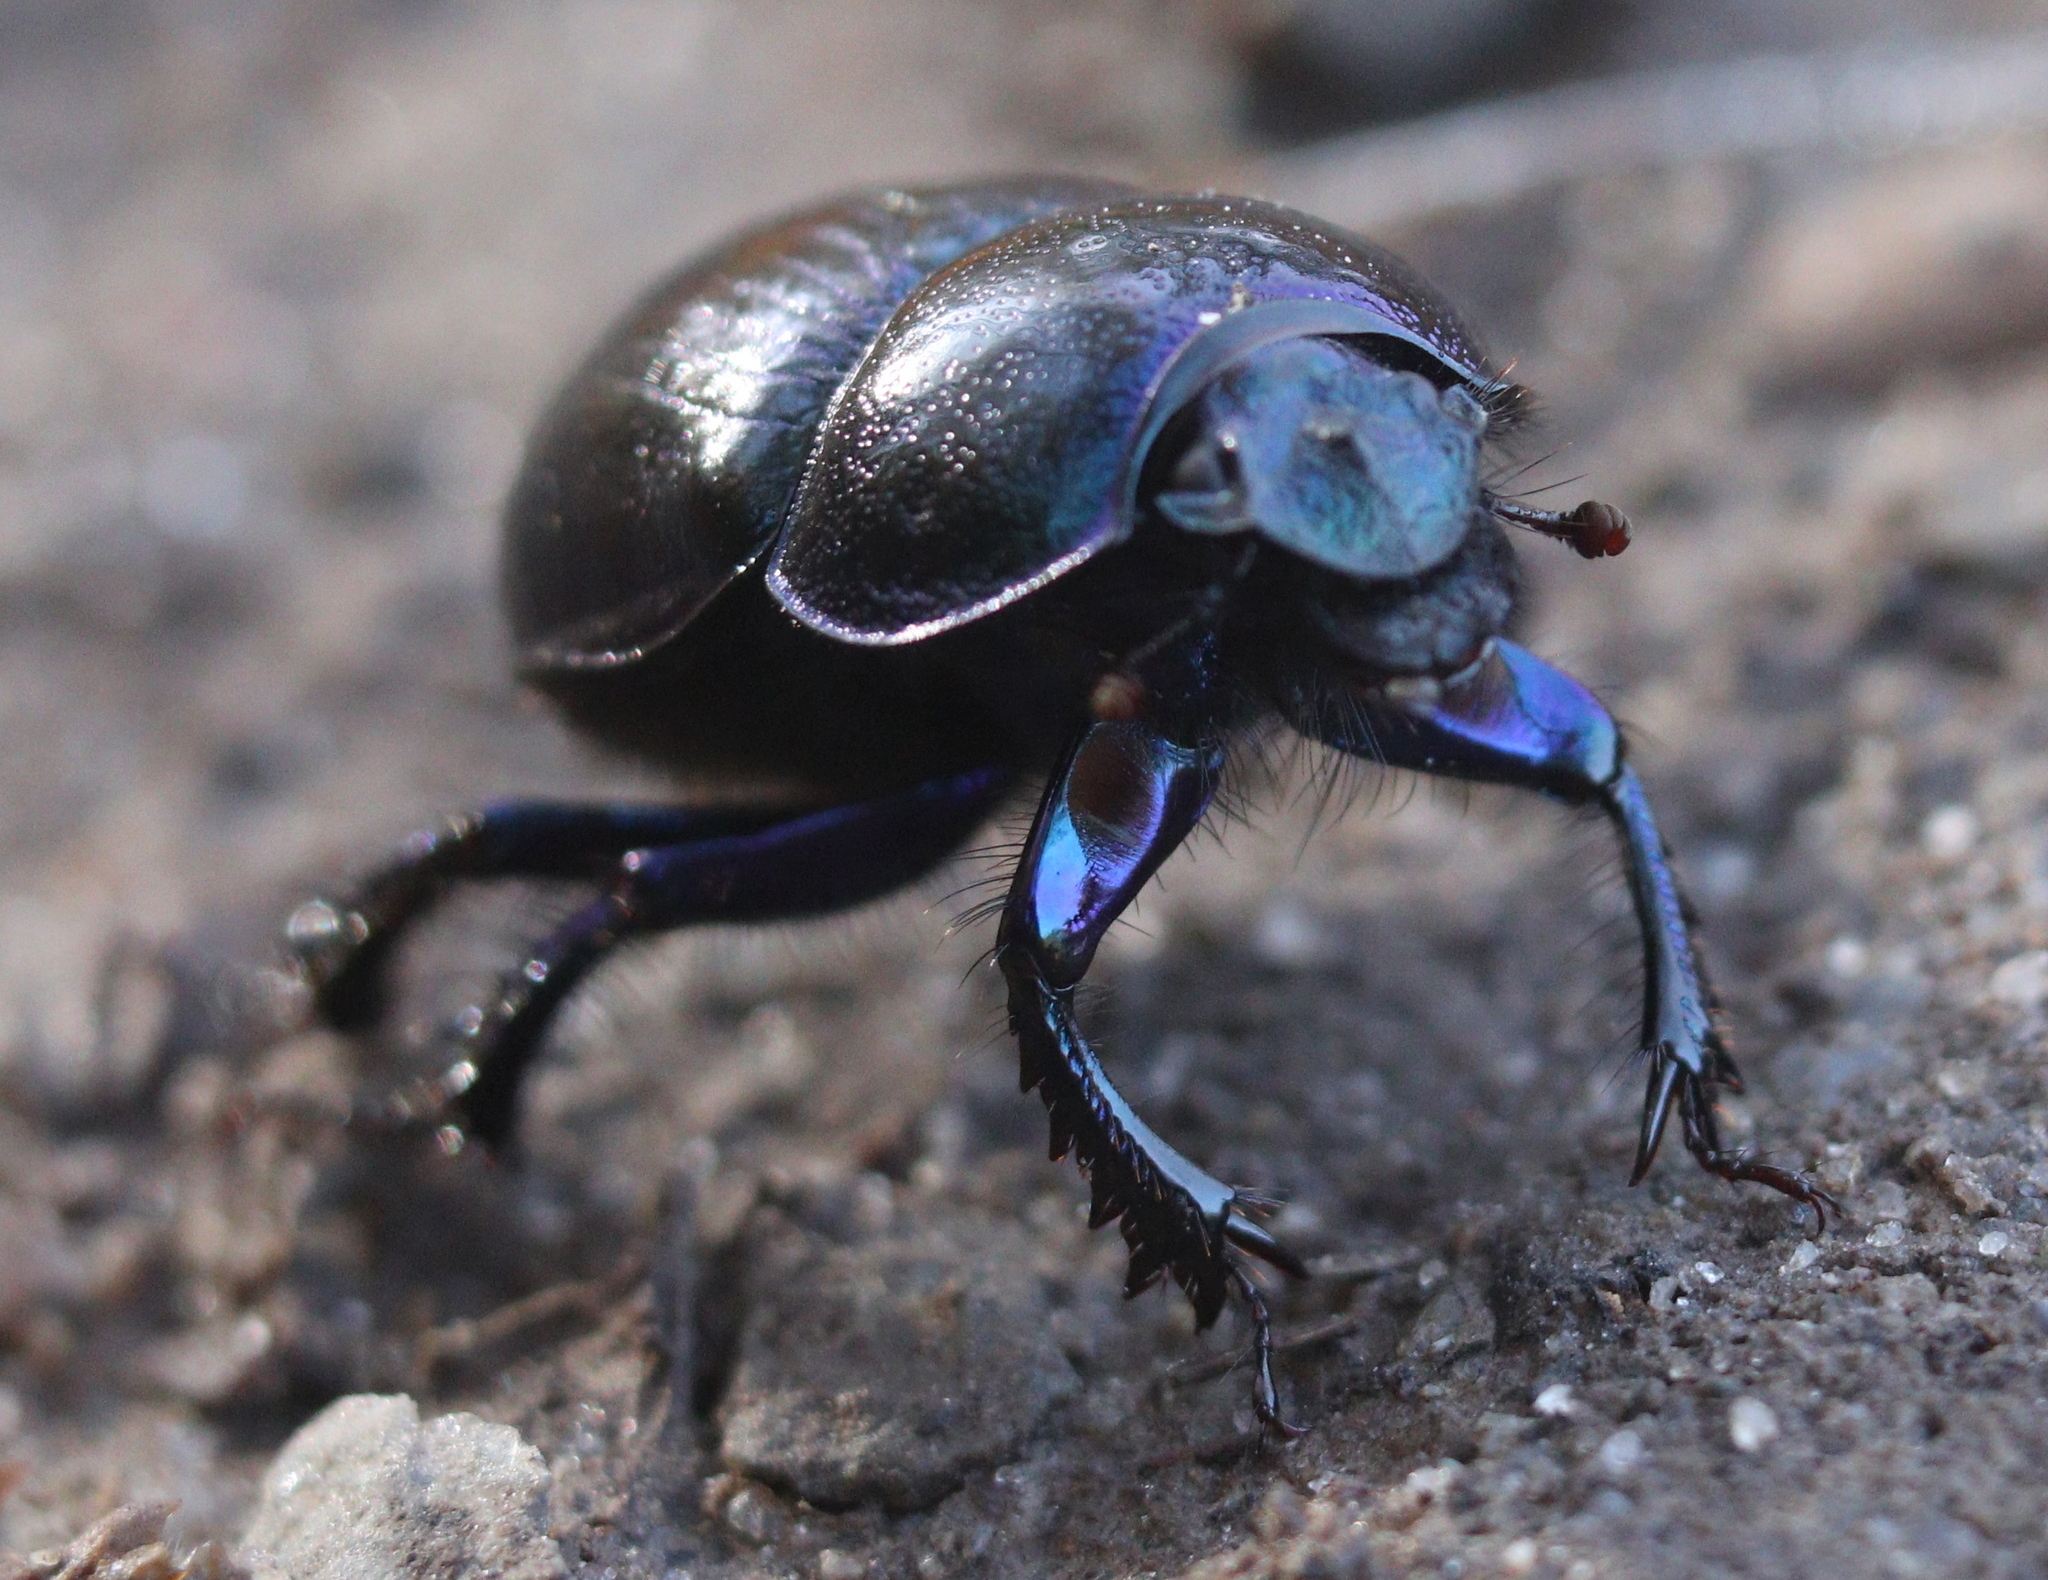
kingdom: Animalia
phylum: Arthropoda
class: Insecta
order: Coleoptera
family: Geotrupidae
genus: Anoplotrupes
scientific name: Anoplotrupes stercorosus
